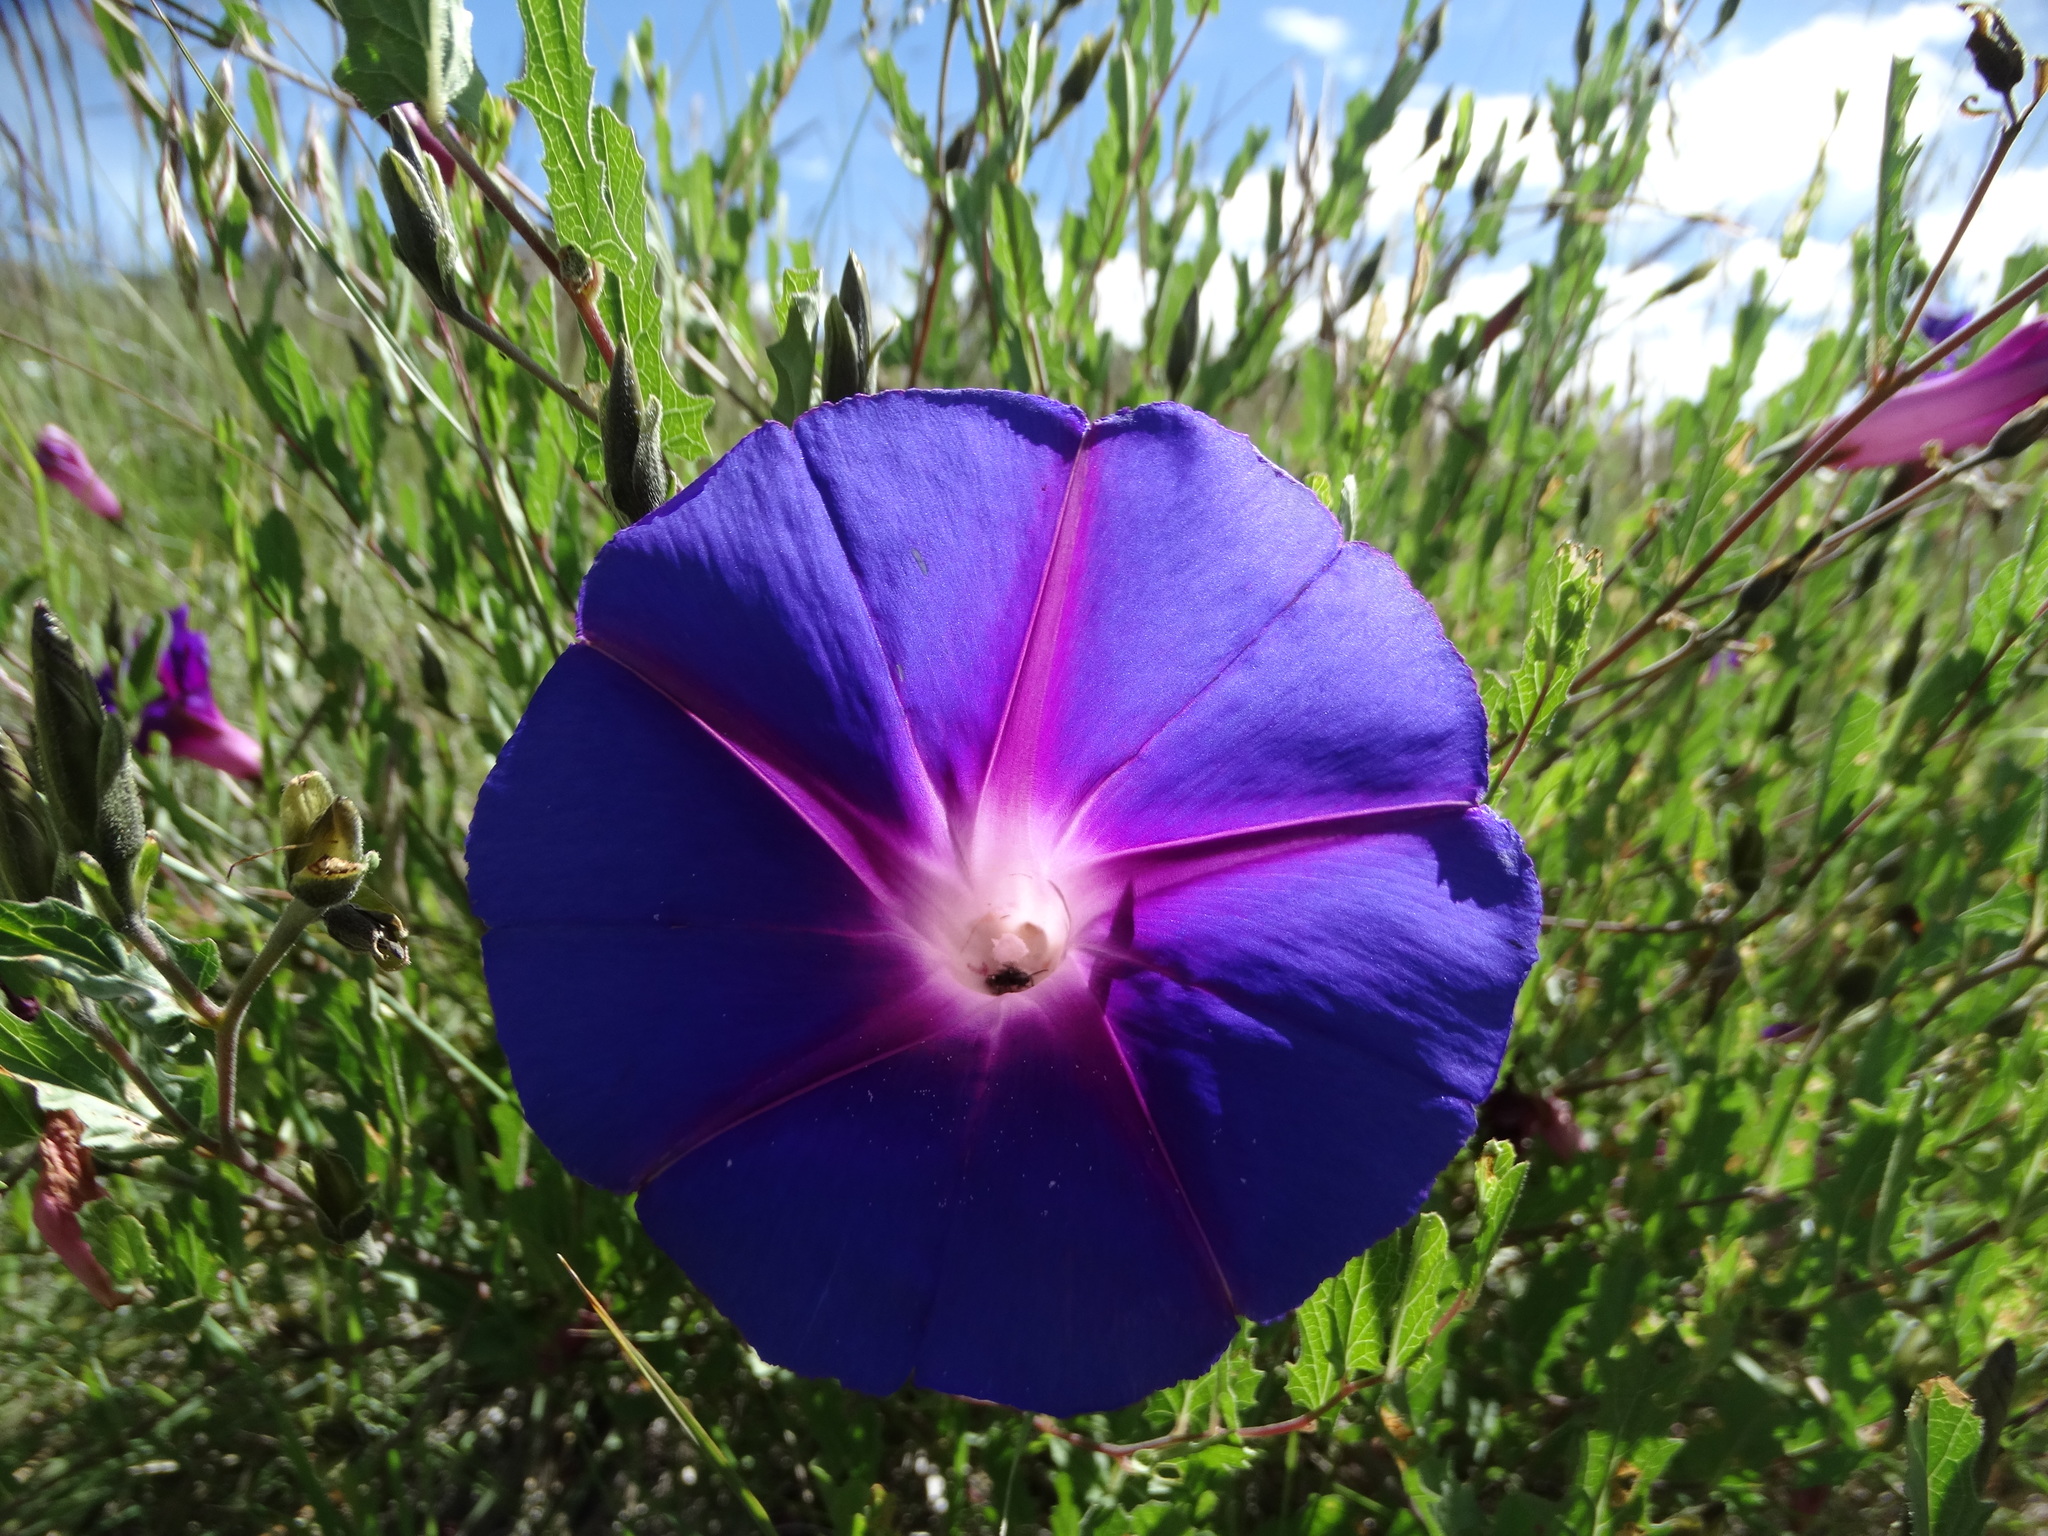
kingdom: Plantae
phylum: Tracheophyta
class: Magnoliopsida
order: Solanales
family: Convolvulaceae
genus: Ipomoea
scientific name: Ipomoea stans
